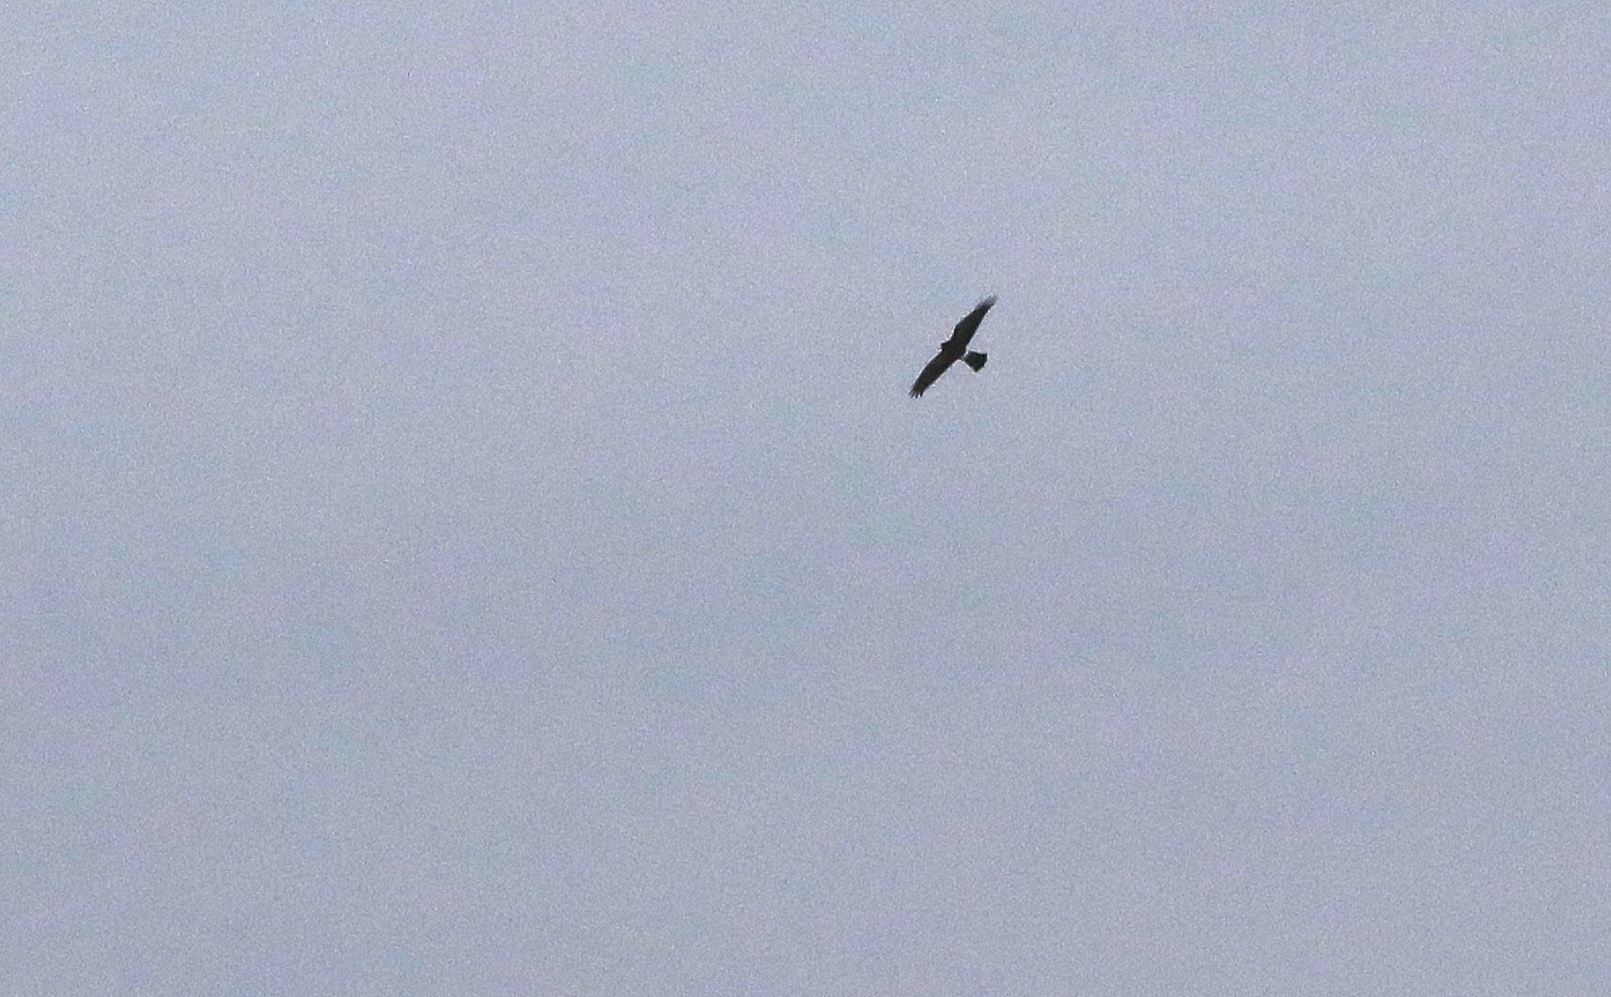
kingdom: Animalia
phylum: Chordata
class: Aves
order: Accipitriformes
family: Accipitridae
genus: Circus
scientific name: Circus cyaneus
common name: Hen harrier
